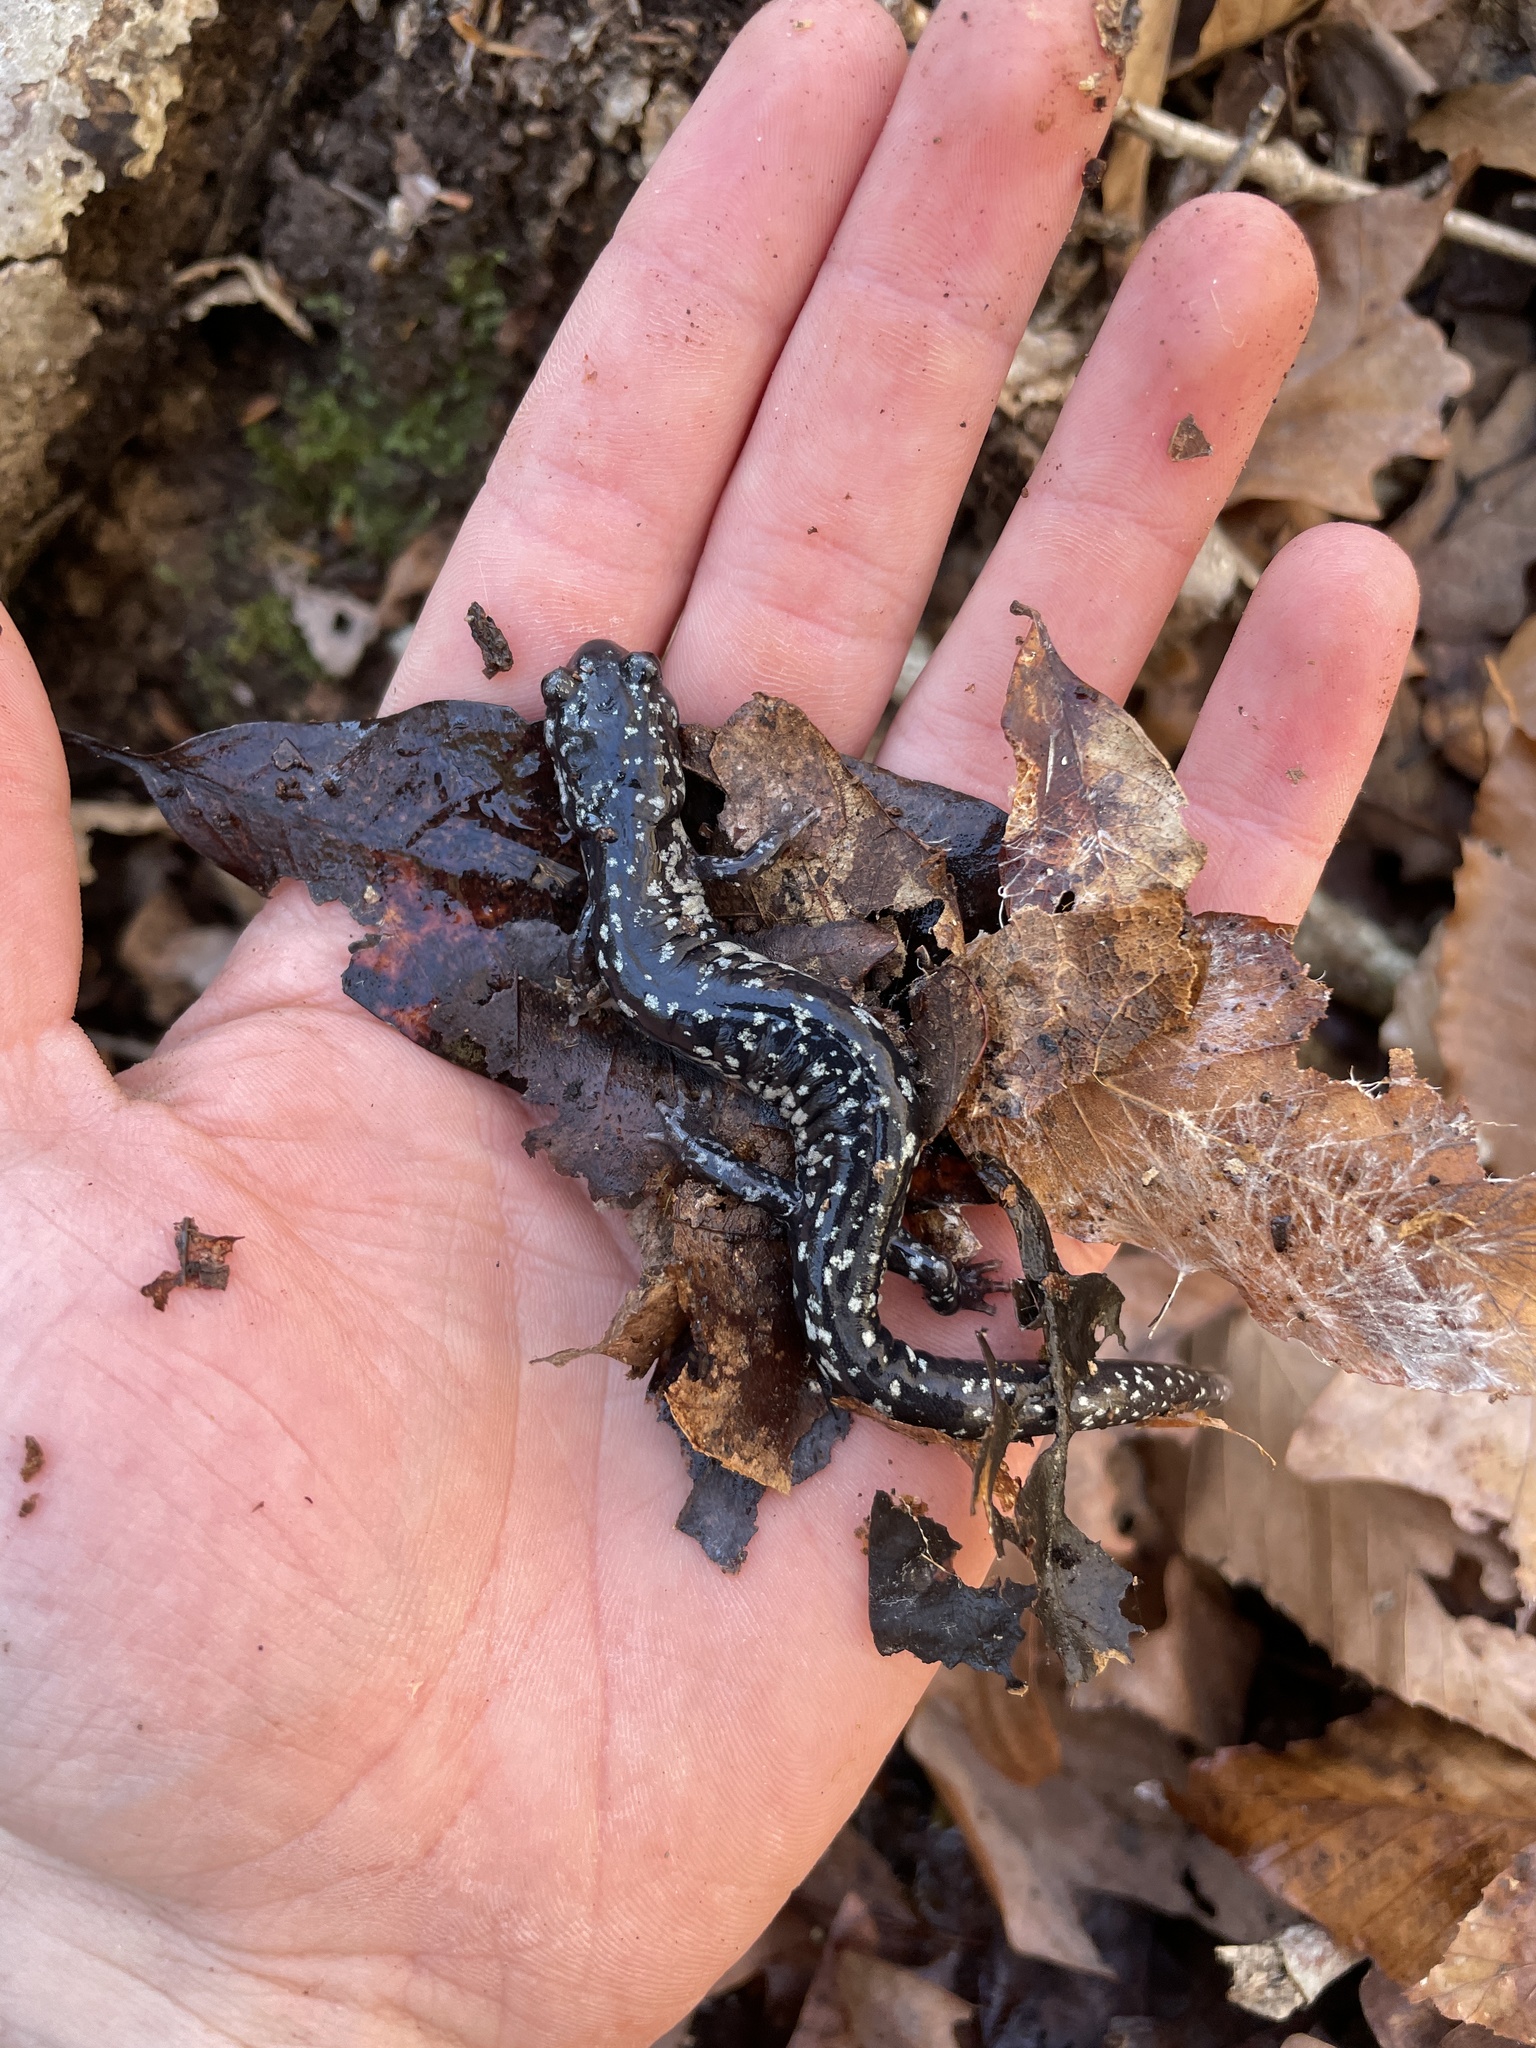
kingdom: Animalia
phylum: Chordata
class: Amphibia
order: Caudata
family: Plethodontidae
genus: Plethodon
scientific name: Plethodon mississippi
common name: Mississippi slimy salamander
